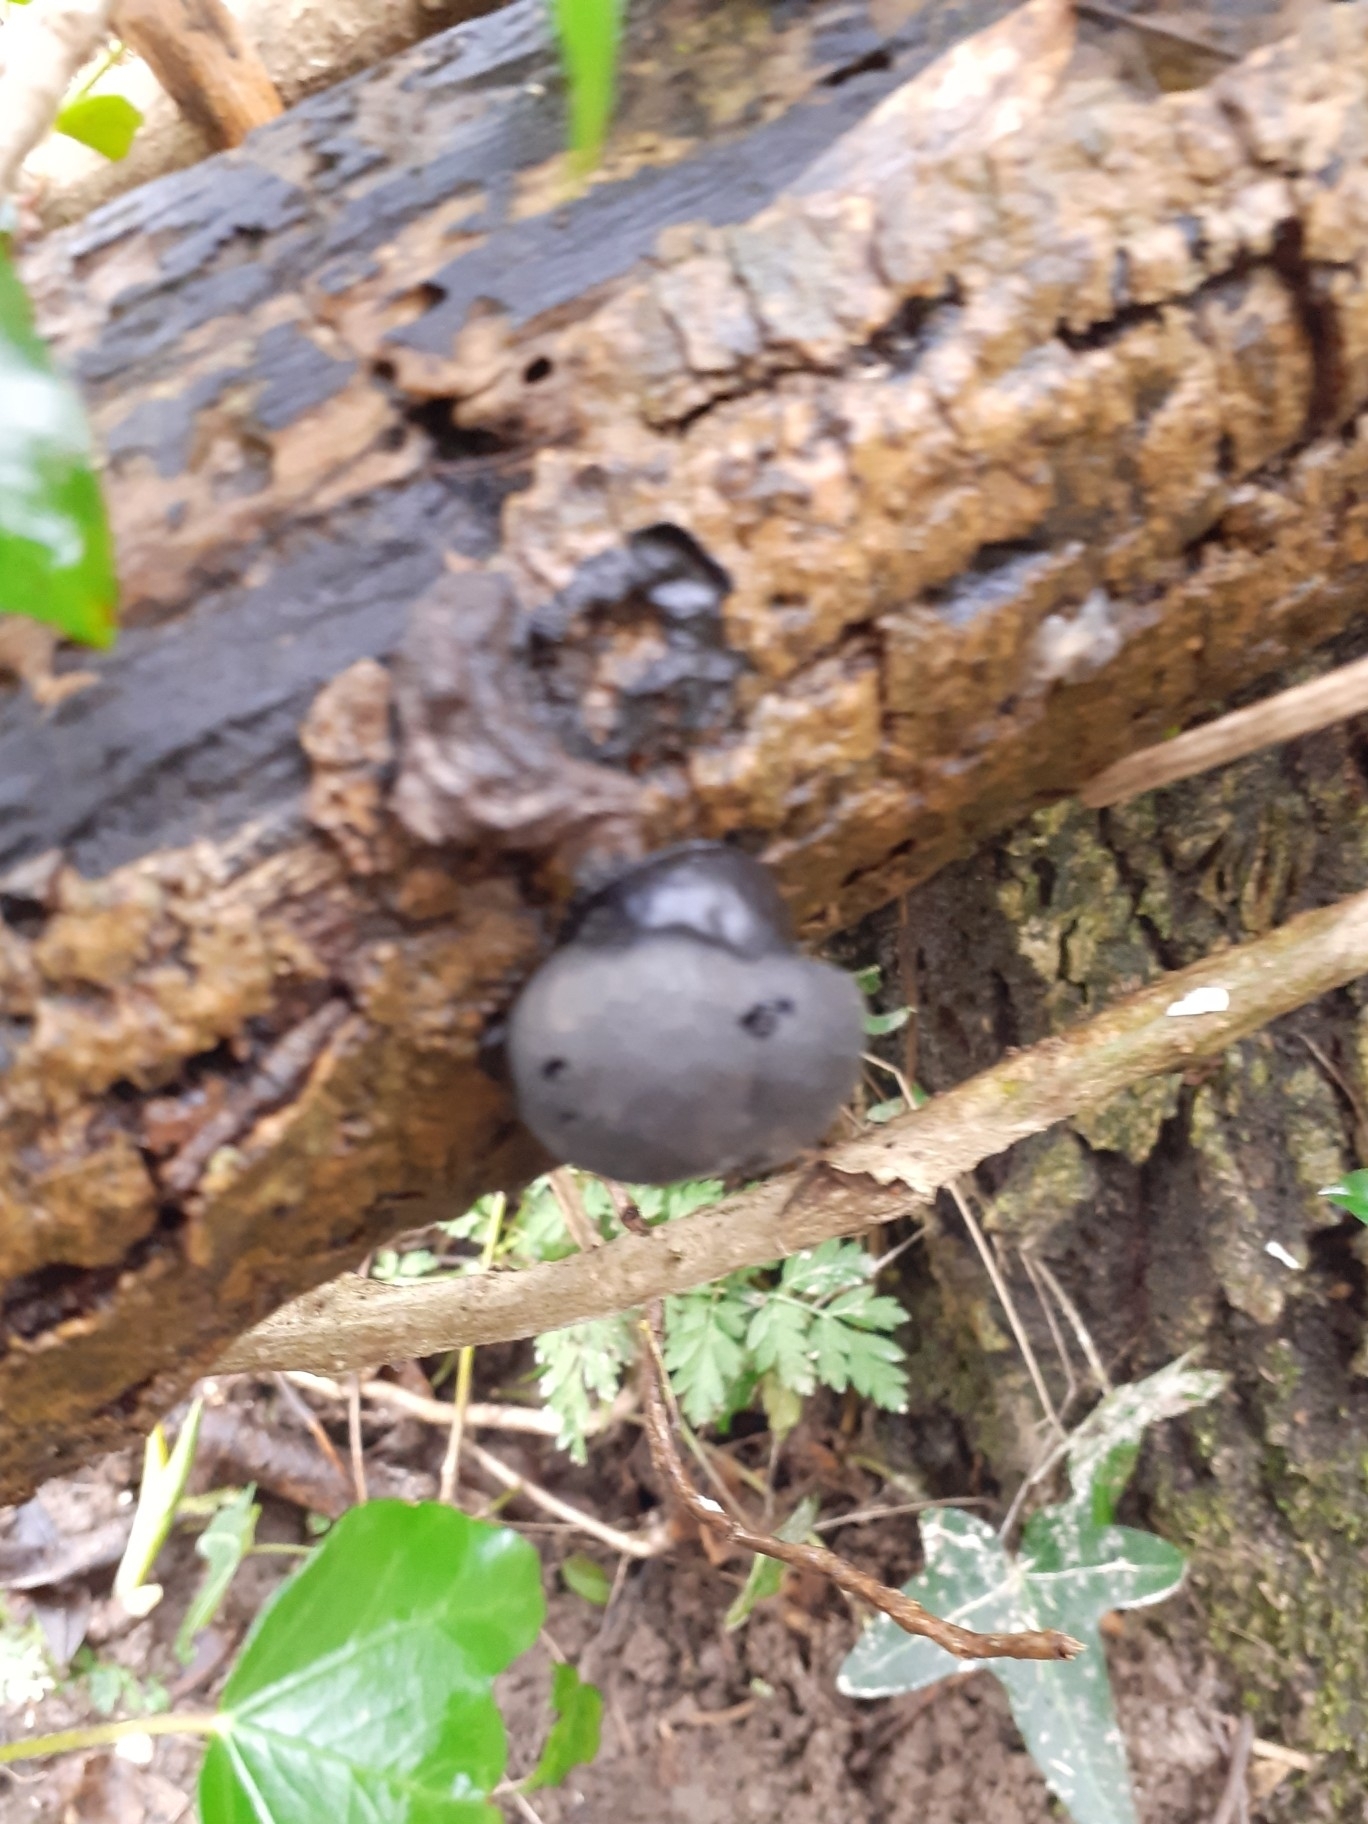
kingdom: Fungi
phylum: Ascomycota
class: Sordariomycetes
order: Xylariales
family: Hypoxylaceae
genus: Daldinia
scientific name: Daldinia concentrica
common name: Cramp balls
